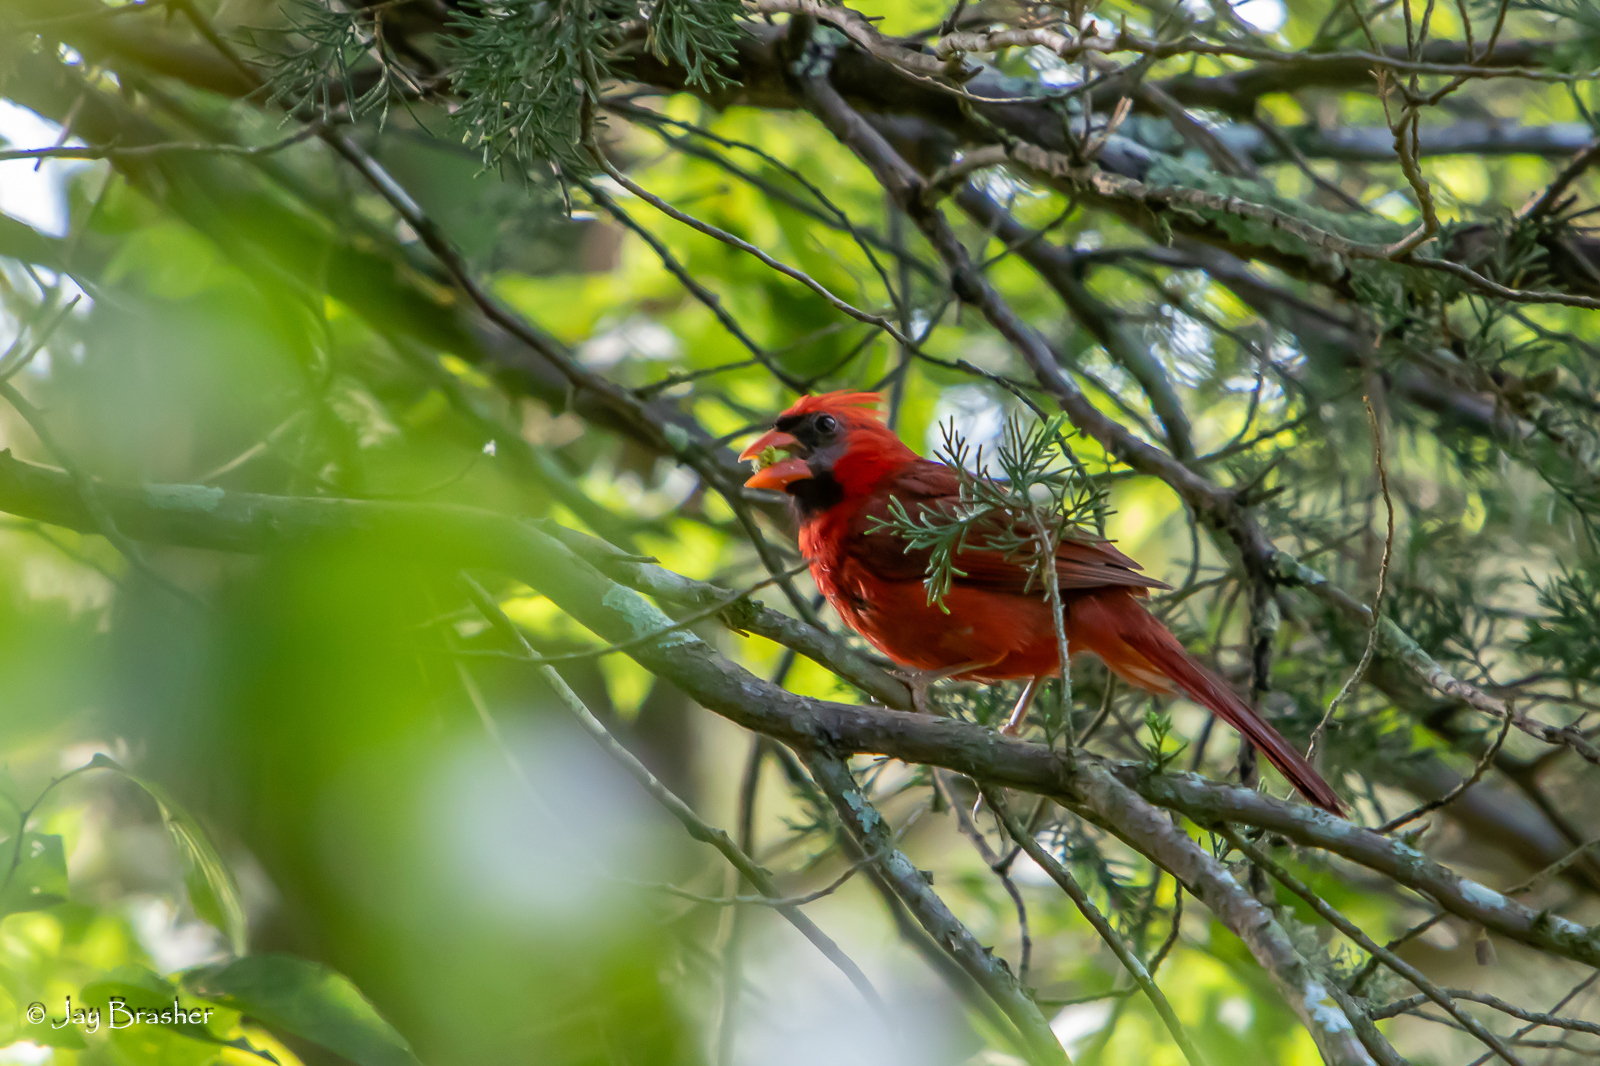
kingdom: Animalia
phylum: Chordata
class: Aves
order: Passeriformes
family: Cardinalidae
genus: Cardinalis
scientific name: Cardinalis cardinalis
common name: Northern cardinal
